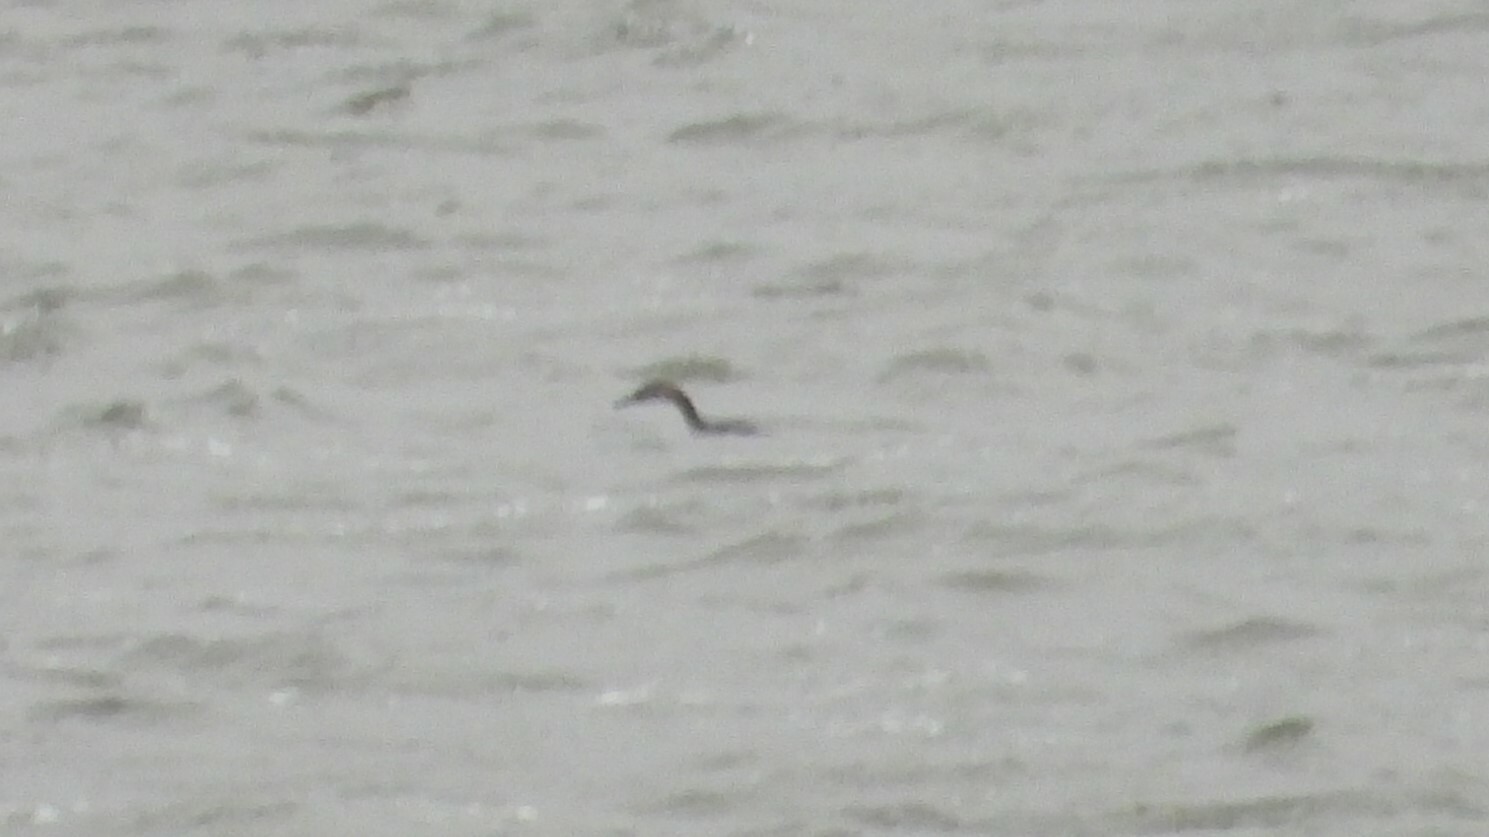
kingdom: Animalia
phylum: Chordata
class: Aves
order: Podicipediformes
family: Podicipedidae
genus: Podiceps
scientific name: Podiceps grisegena
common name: Red-necked grebe
